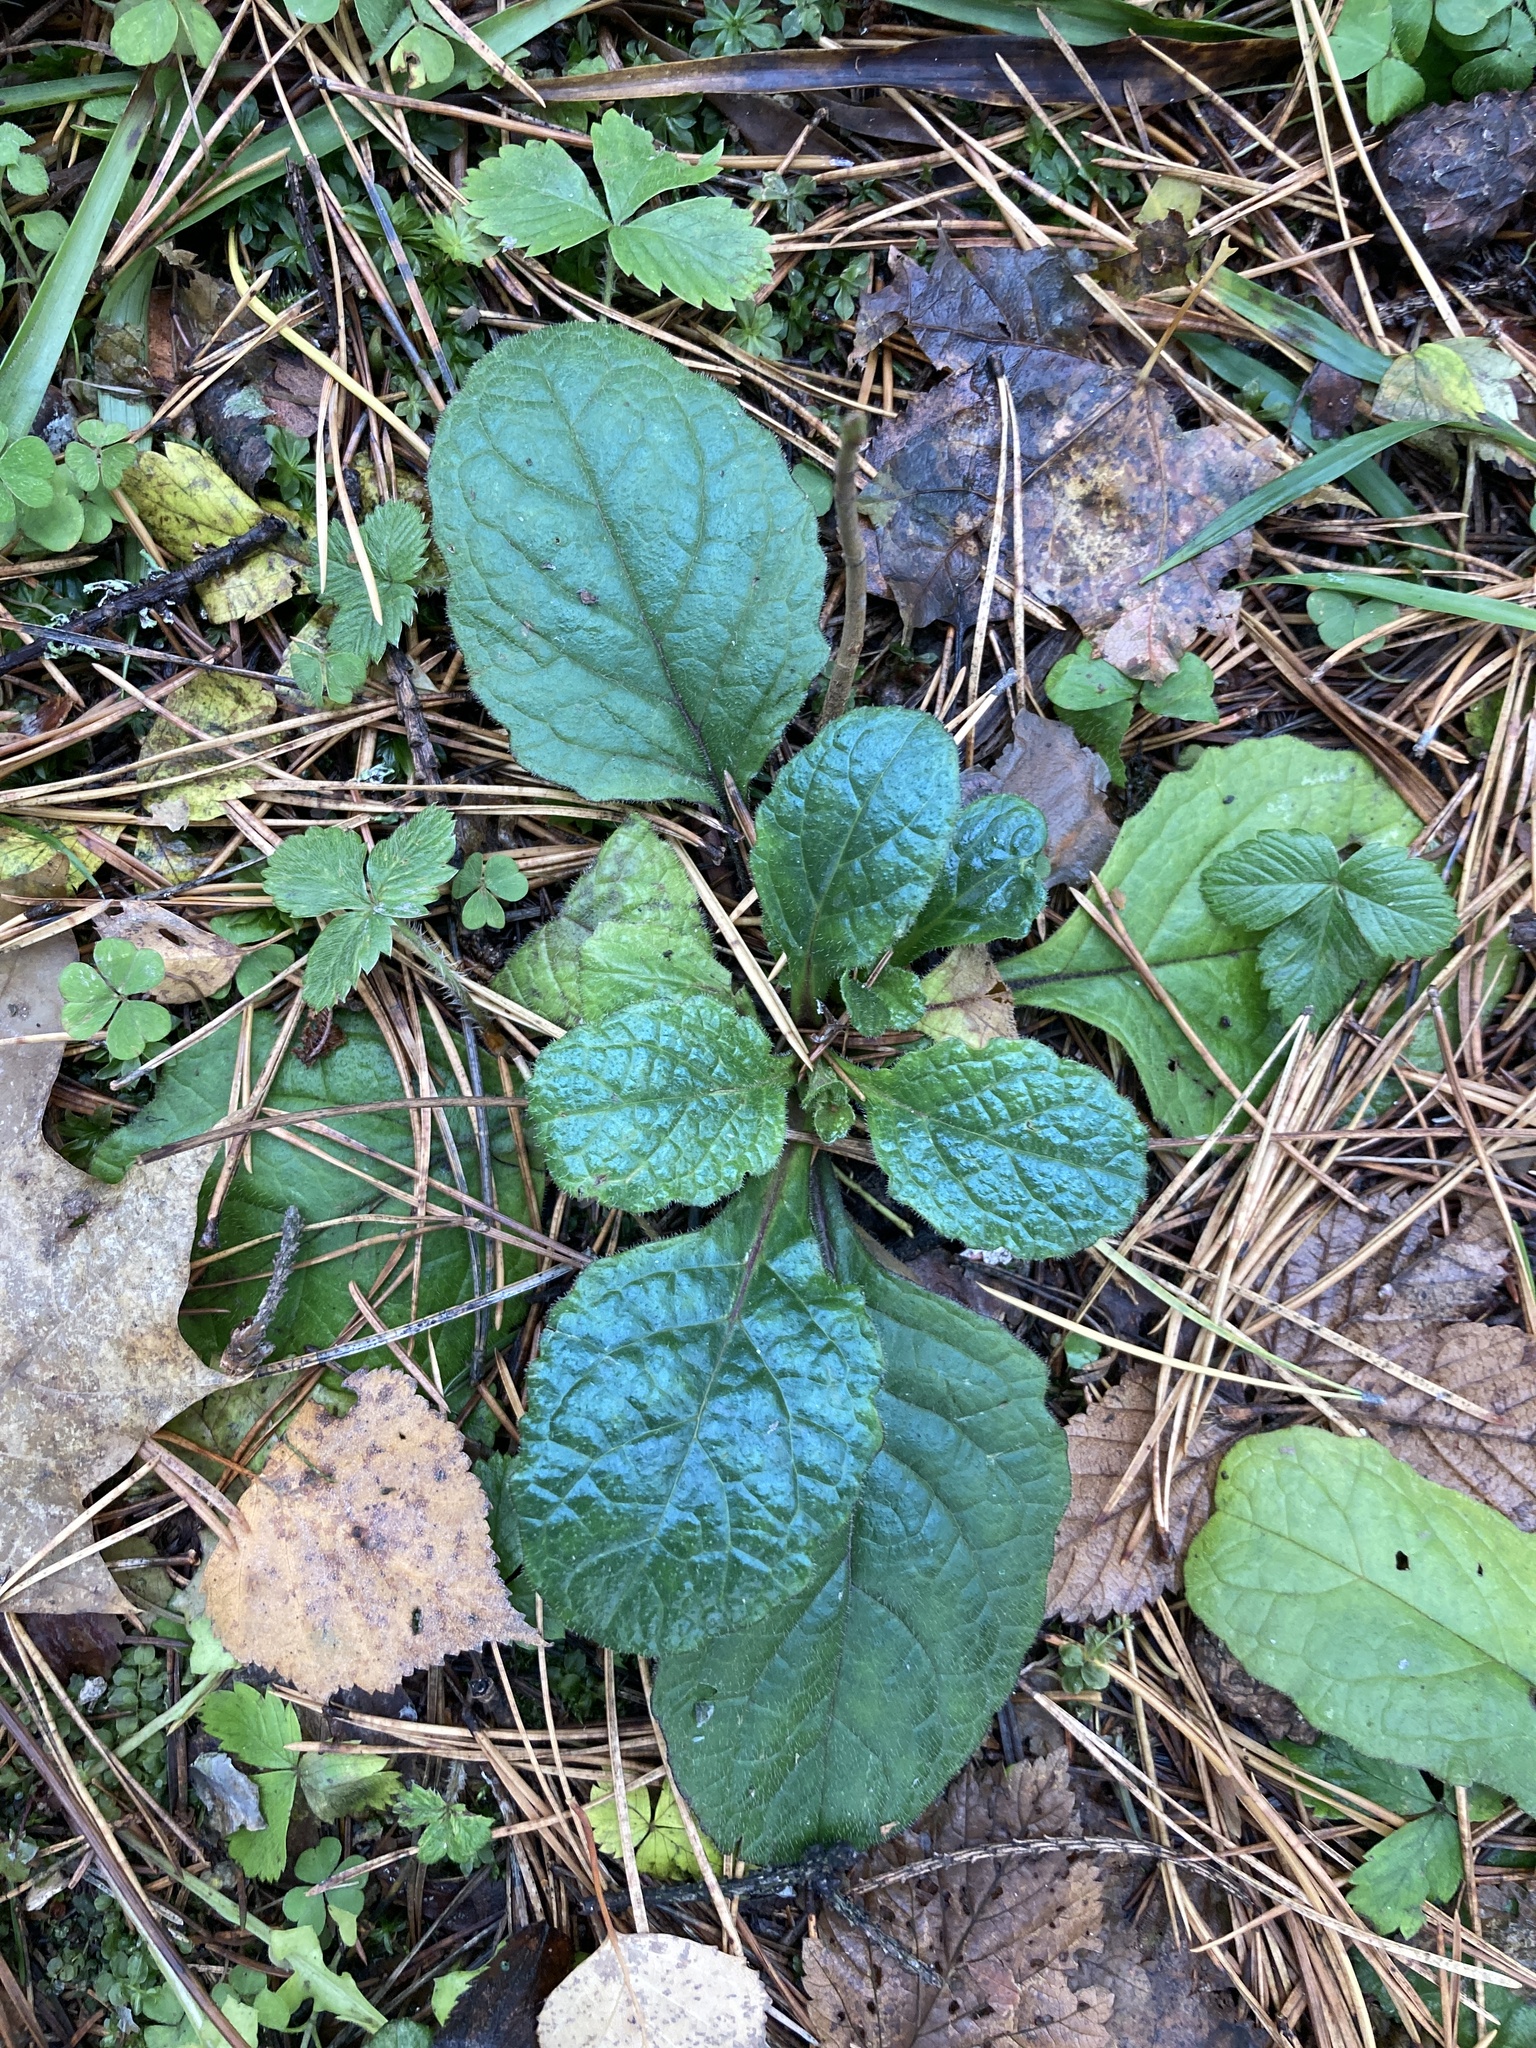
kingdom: Plantae
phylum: Tracheophyta
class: Magnoliopsida
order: Lamiales
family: Lamiaceae
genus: Ajuga
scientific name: Ajuga reptans
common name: Bugle
